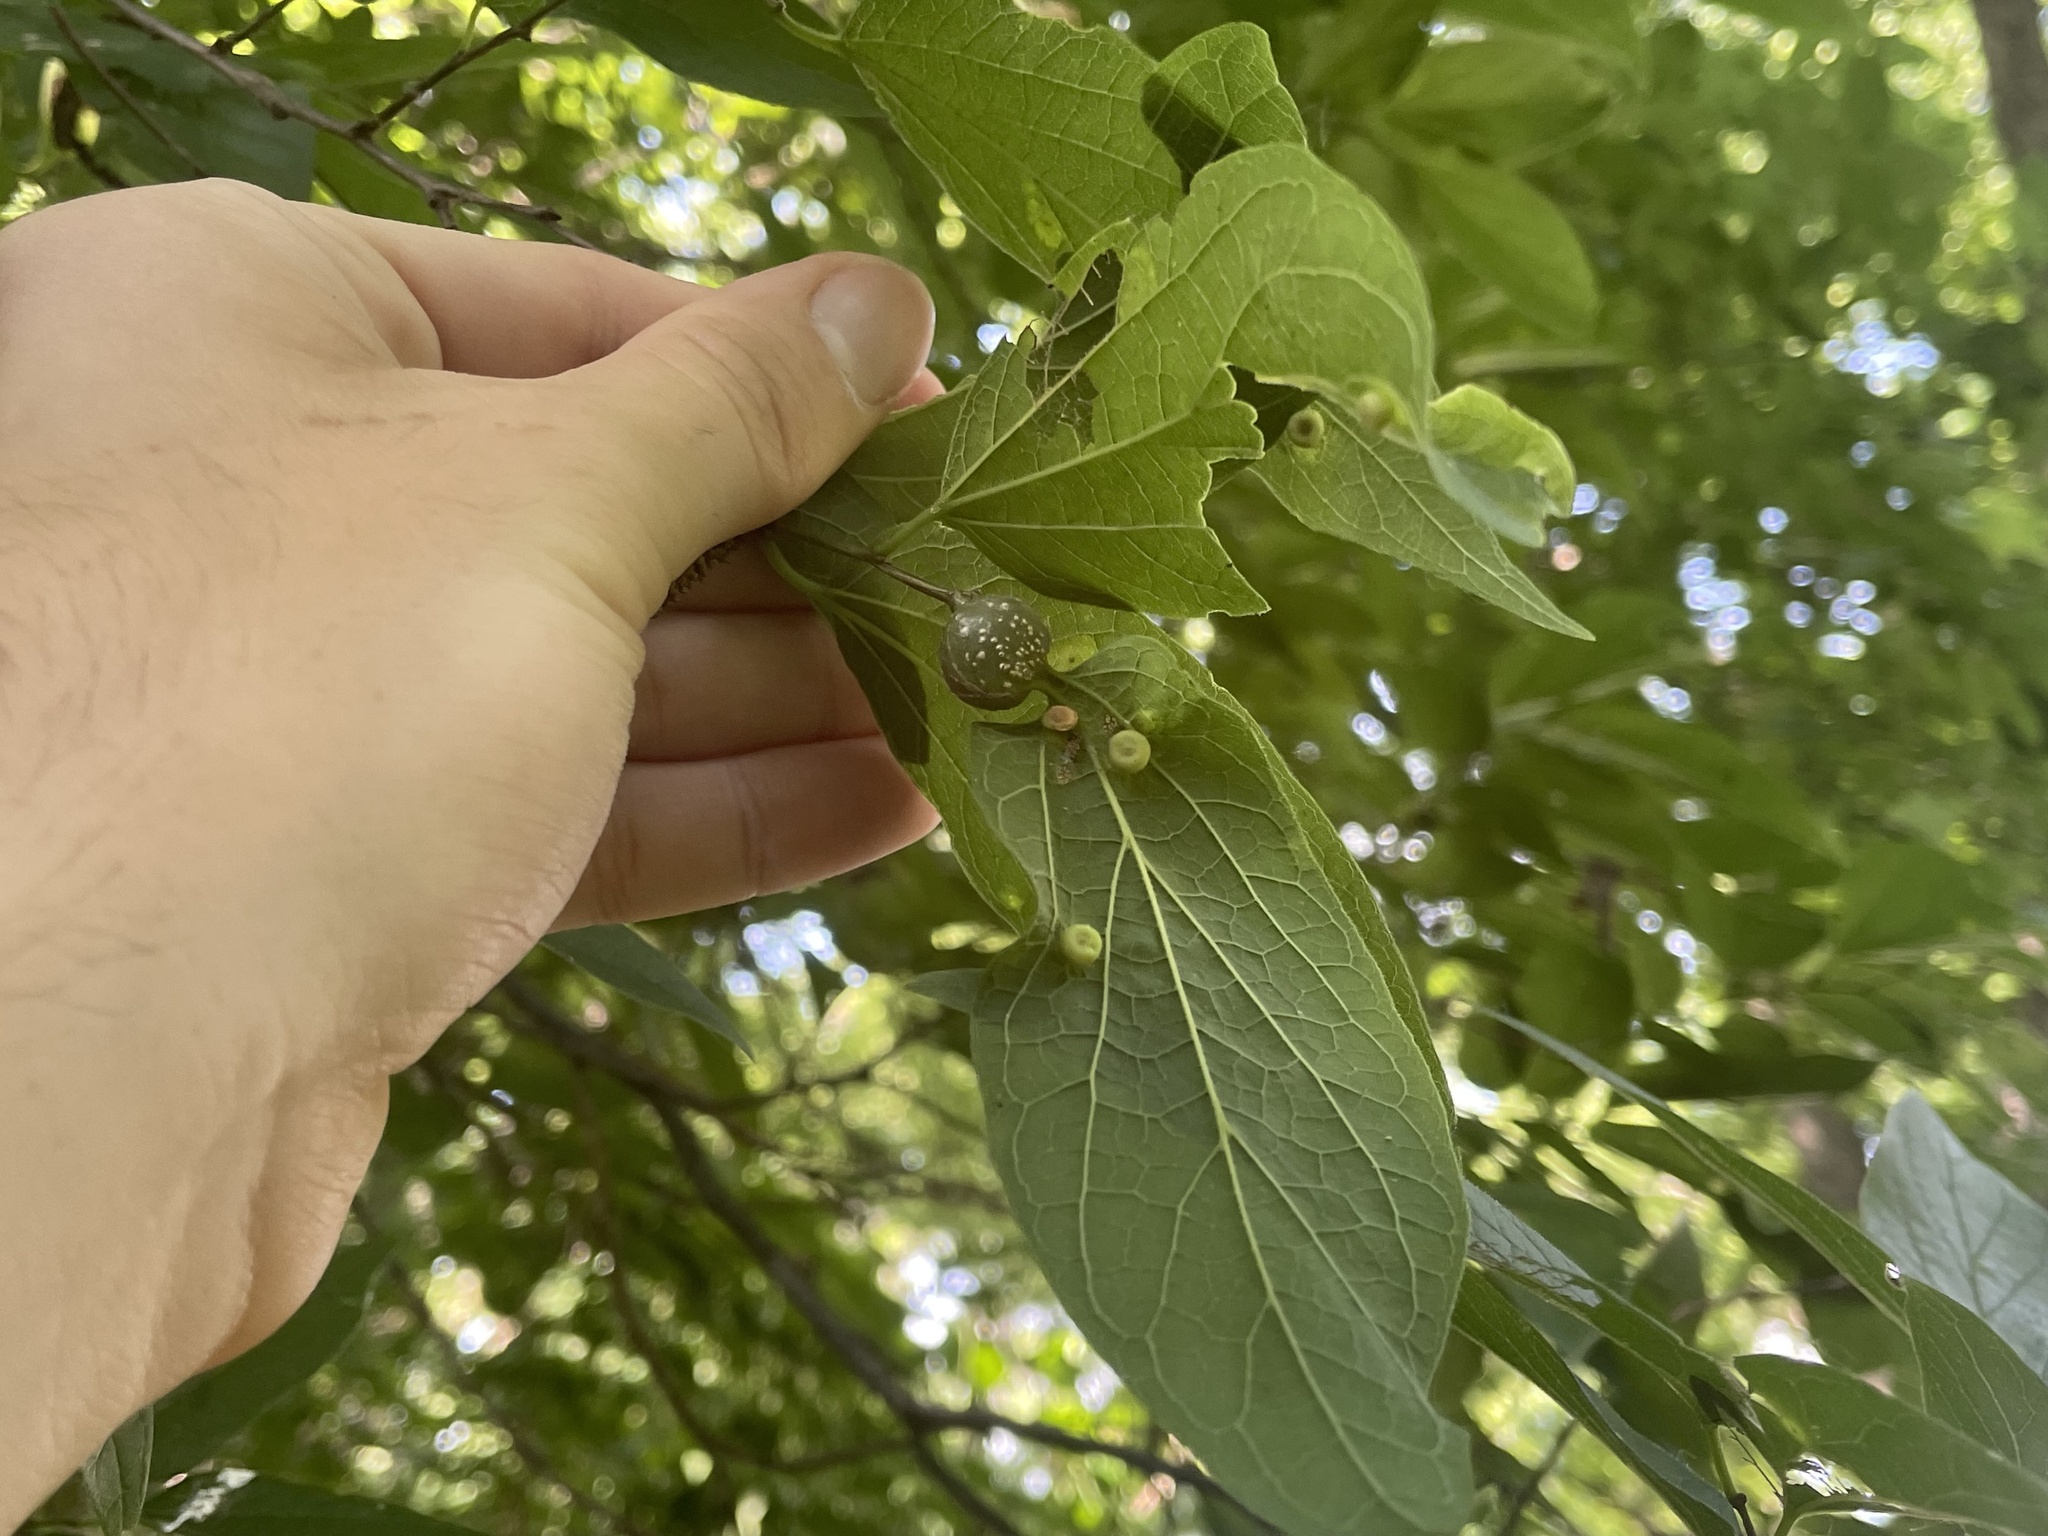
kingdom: Animalia
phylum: Arthropoda
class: Insecta
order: Hemiptera
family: Aphalaridae
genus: Pachypsylla
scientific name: Pachypsylla venusta
